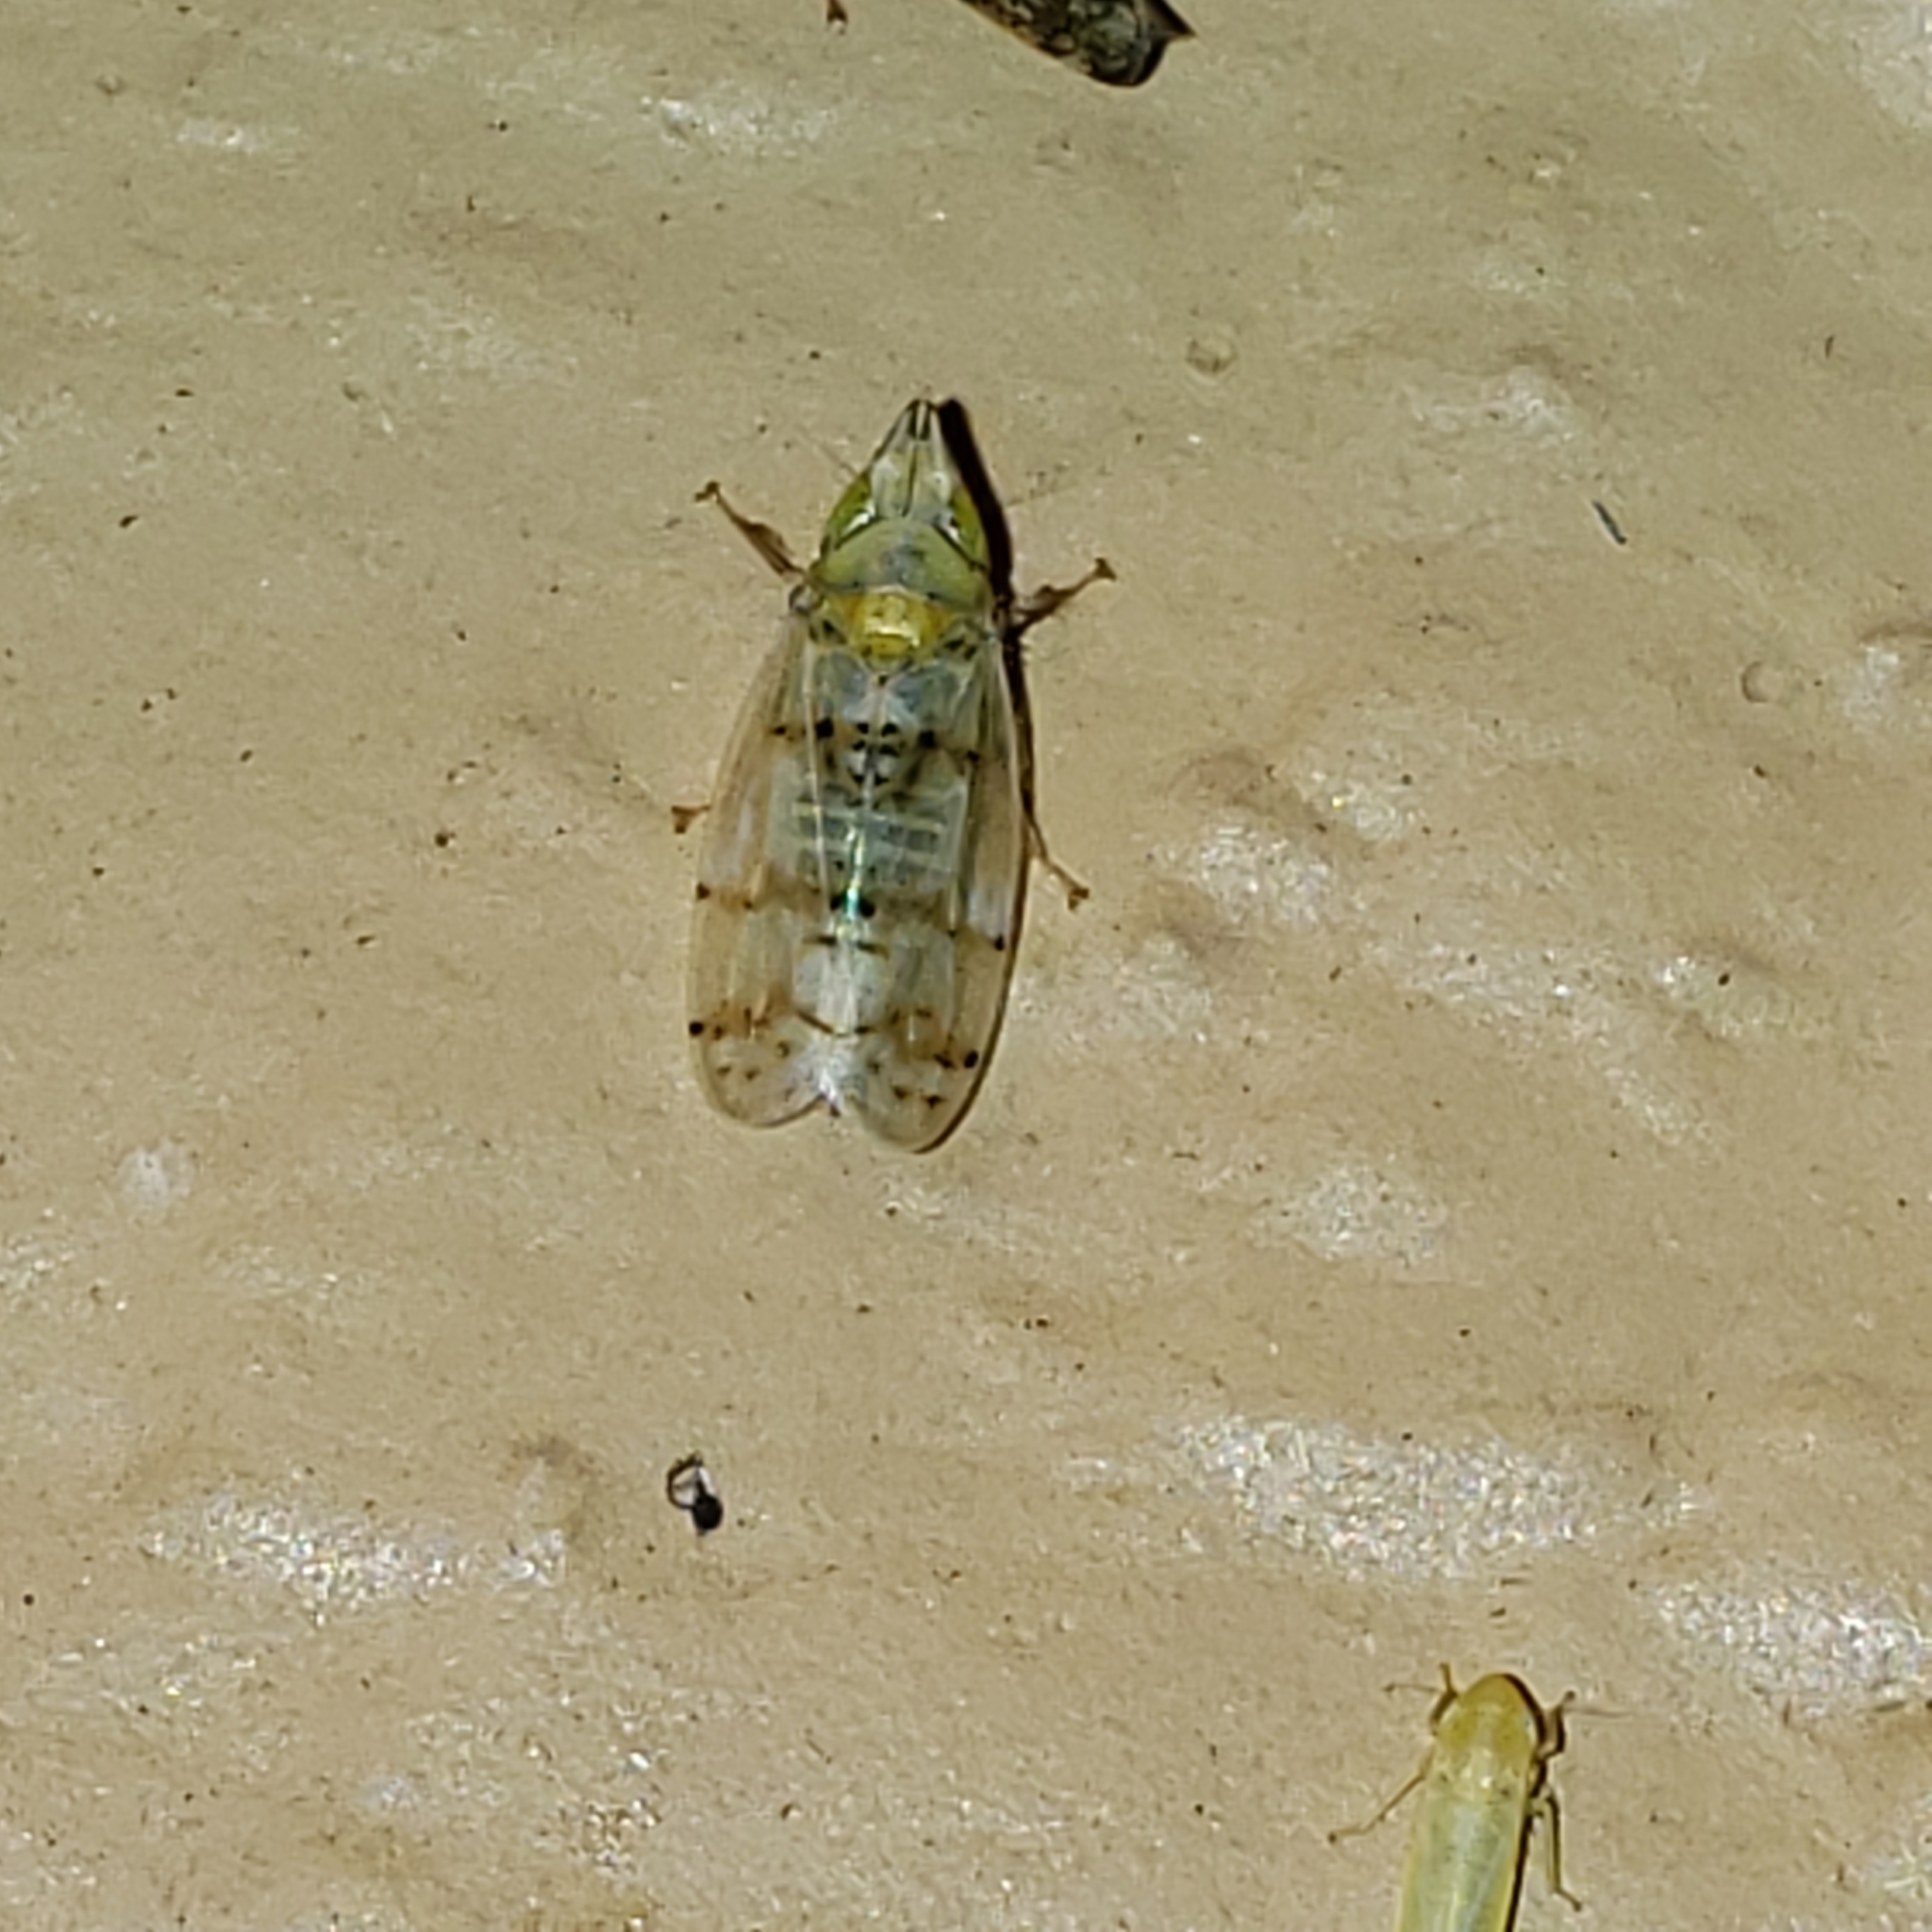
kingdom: Animalia
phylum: Arthropoda
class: Insecta
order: Hemiptera
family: Cicadellidae
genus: Japananus
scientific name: Japananus hyalinus
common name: The japanese maple leafhopper
